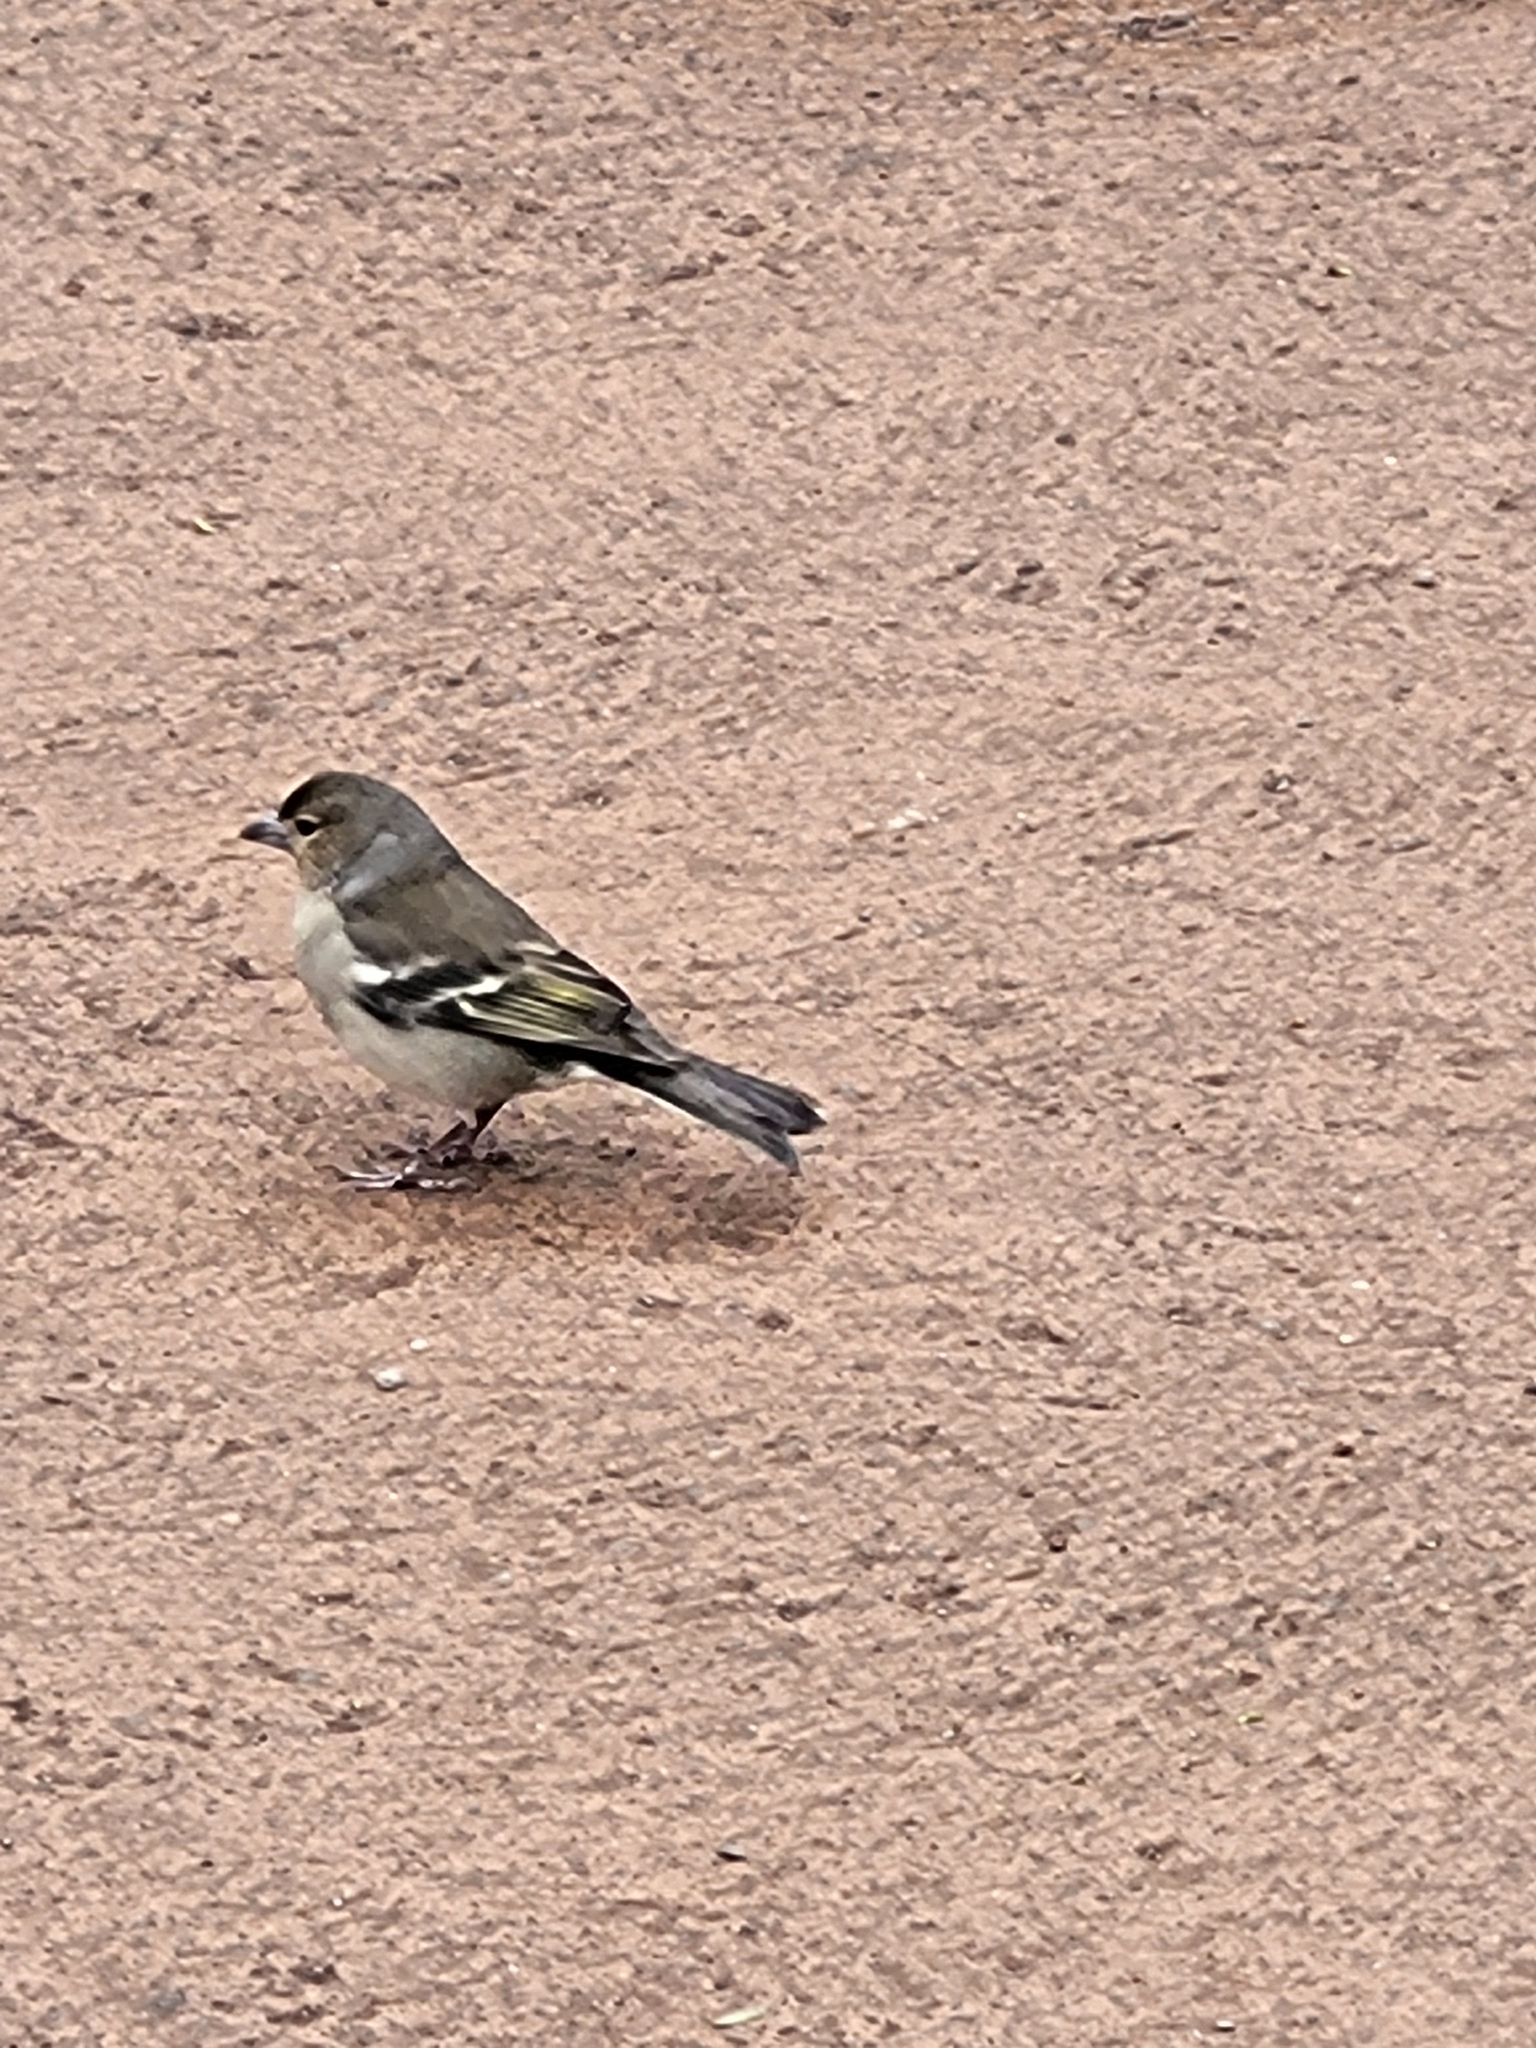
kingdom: Animalia
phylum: Chordata
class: Aves
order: Passeriformes
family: Fringillidae
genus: Fringilla
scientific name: Fringilla canariensis
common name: Canary islands chaffinch
